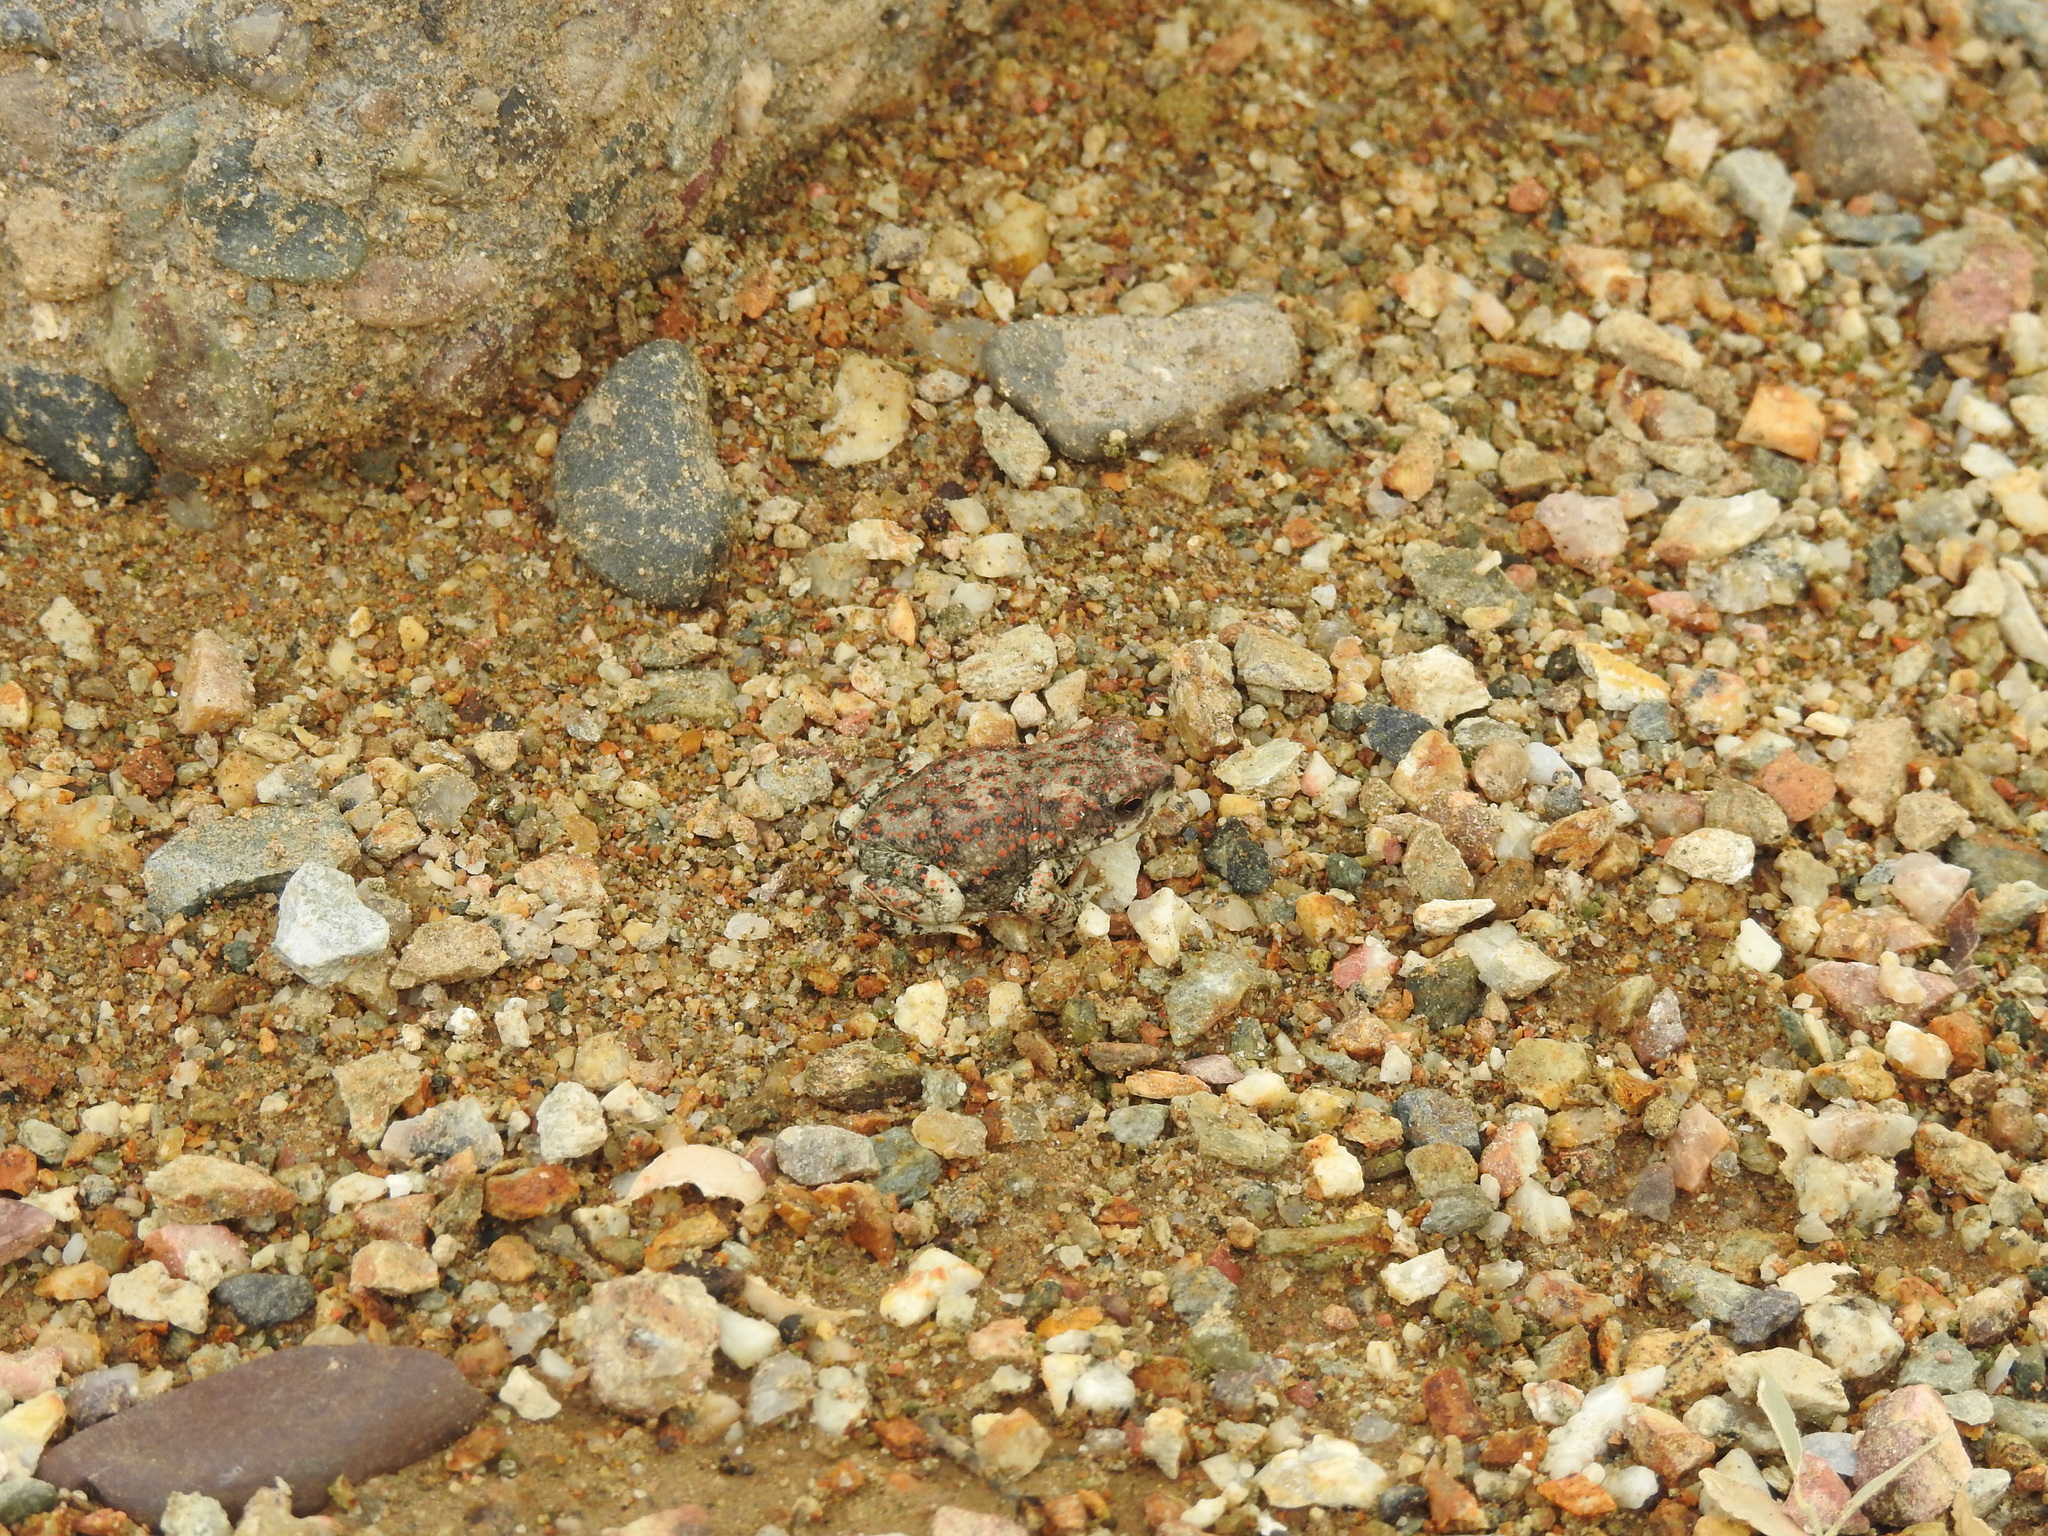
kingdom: Animalia
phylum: Chordata
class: Amphibia
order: Anura
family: Bufonidae
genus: Anaxyrus
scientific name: Anaxyrus punctatus
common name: Red-spotted toad
